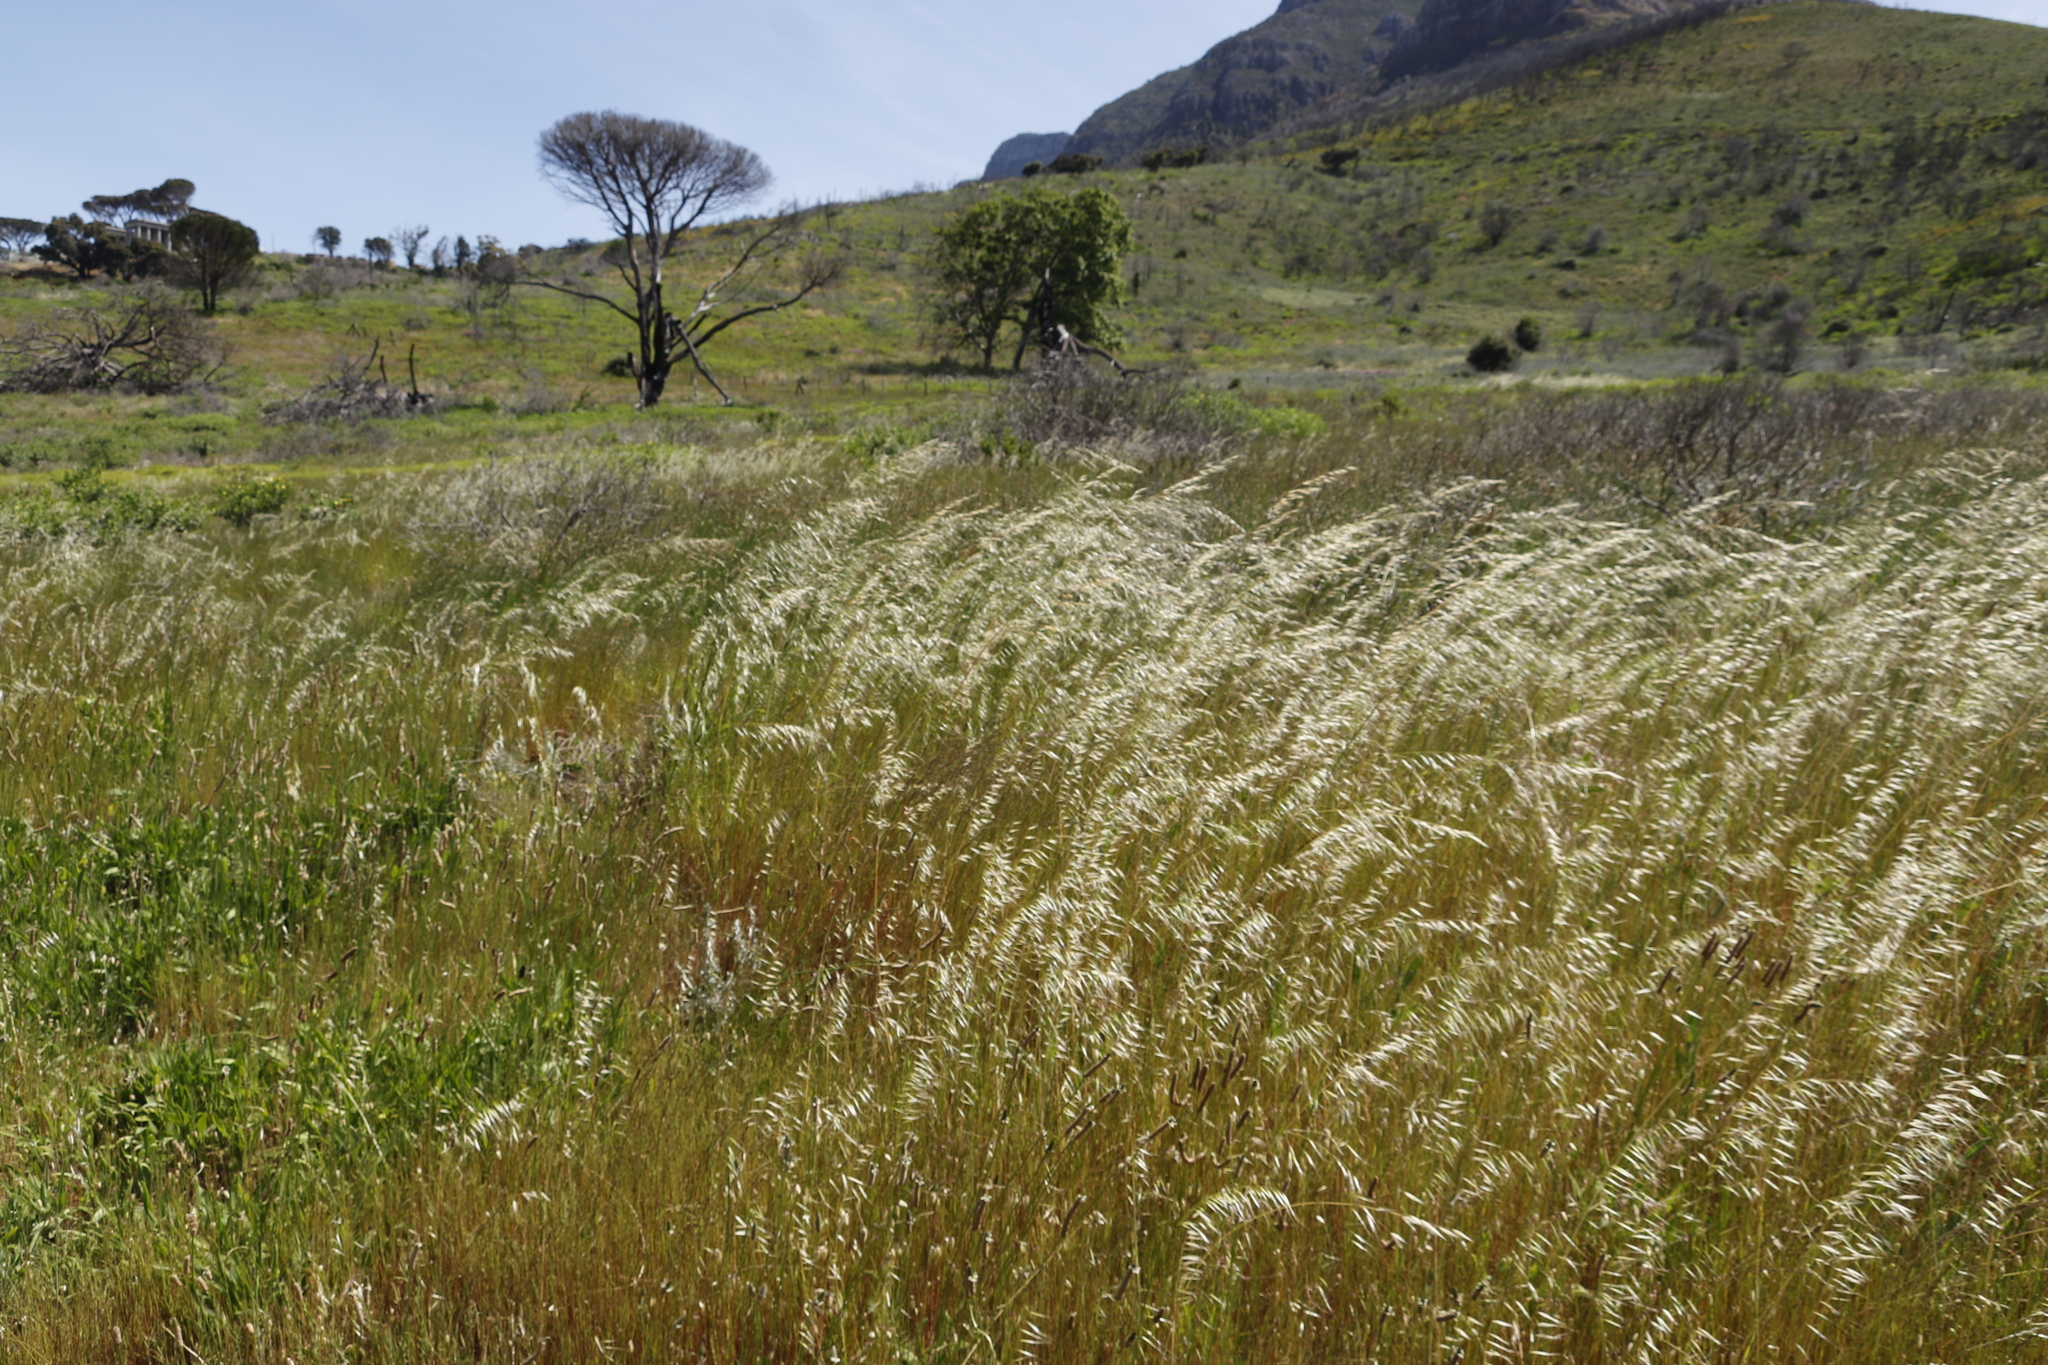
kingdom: Plantae
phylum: Tracheophyta
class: Liliopsida
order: Poales
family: Poaceae
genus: Avena
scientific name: Avena fatua
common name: Wild oat
